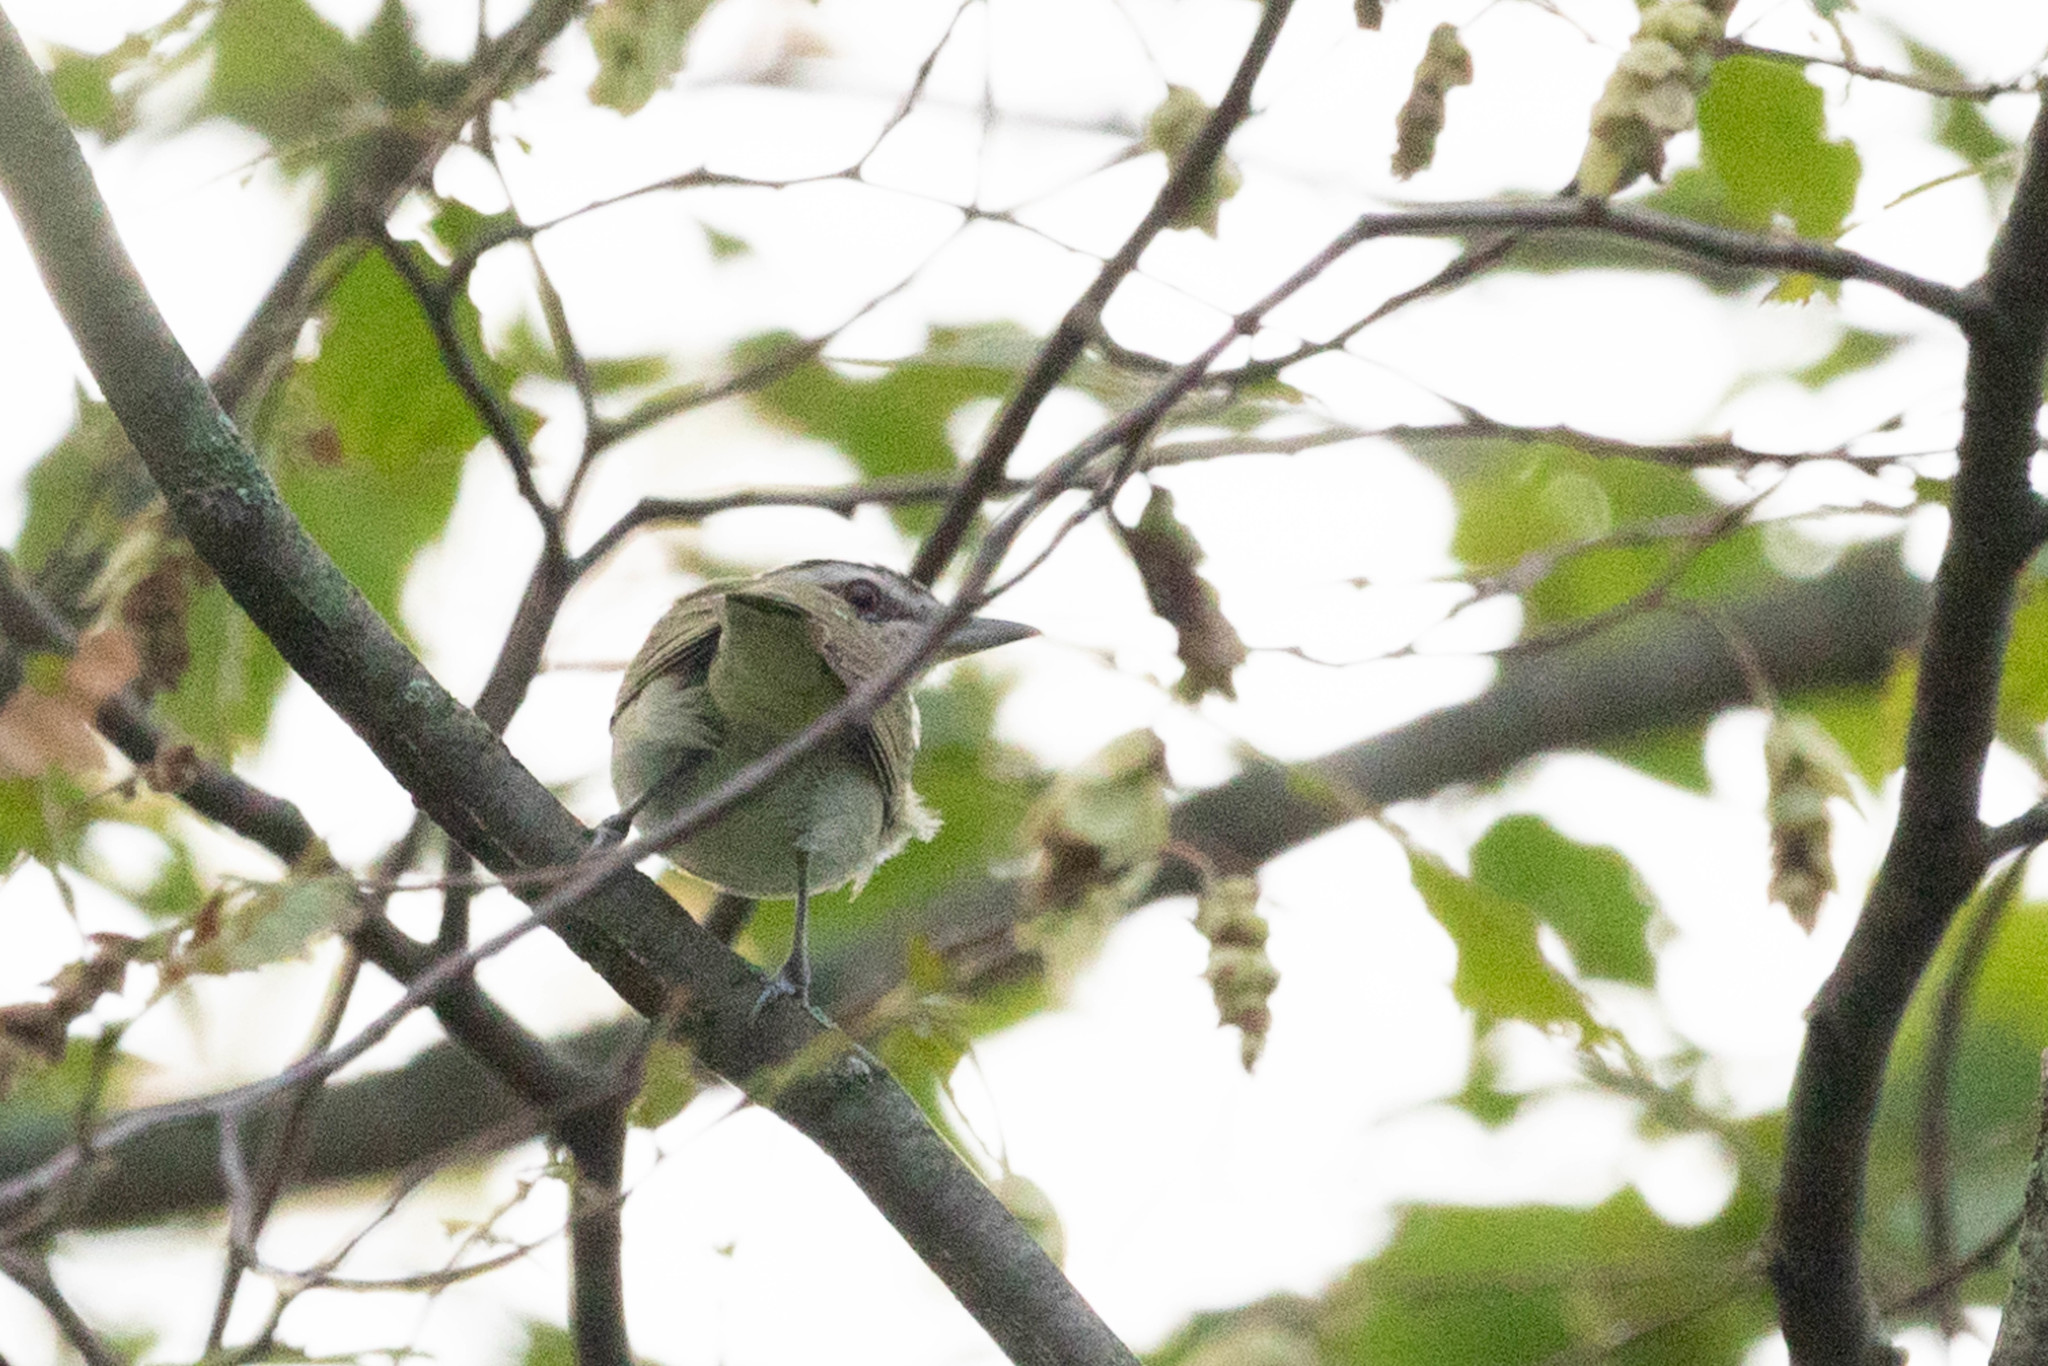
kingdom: Animalia
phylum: Chordata
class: Aves
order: Passeriformes
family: Vireonidae
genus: Vireo
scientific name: Vireo olivaceus
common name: Red-eyed vireo
